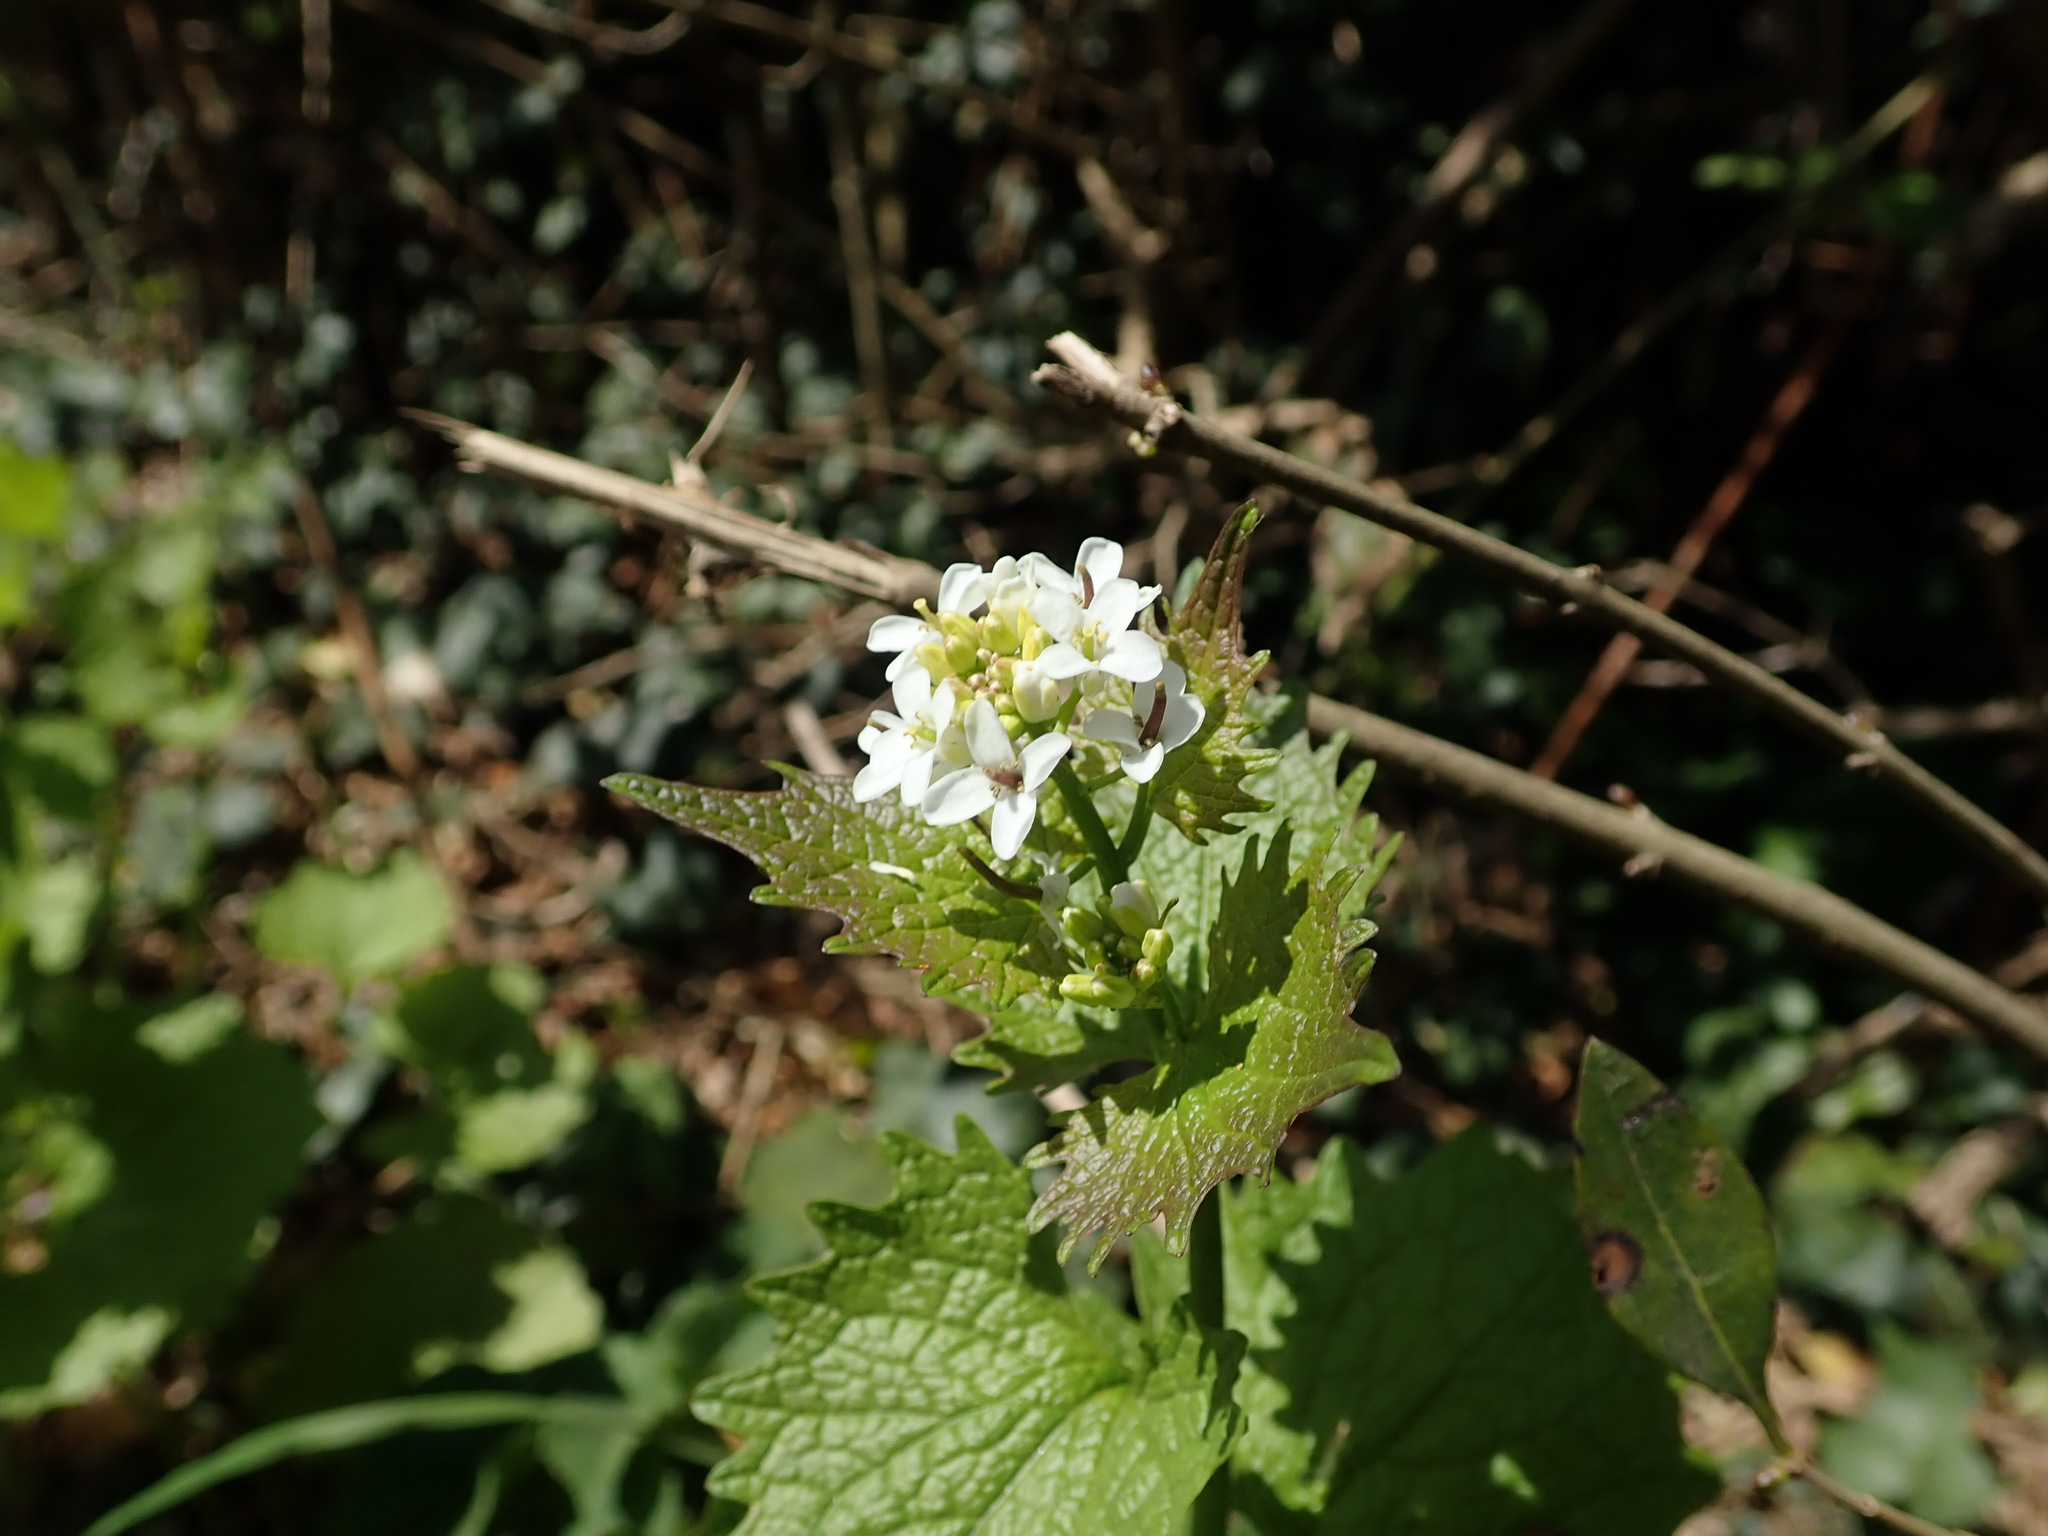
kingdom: Plantae
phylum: Tracheophyta
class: Magnoliopsida
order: Brassicales
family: Brassicaceae
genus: Alliaria
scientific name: Alliaria petiolata
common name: Garlic mustard
